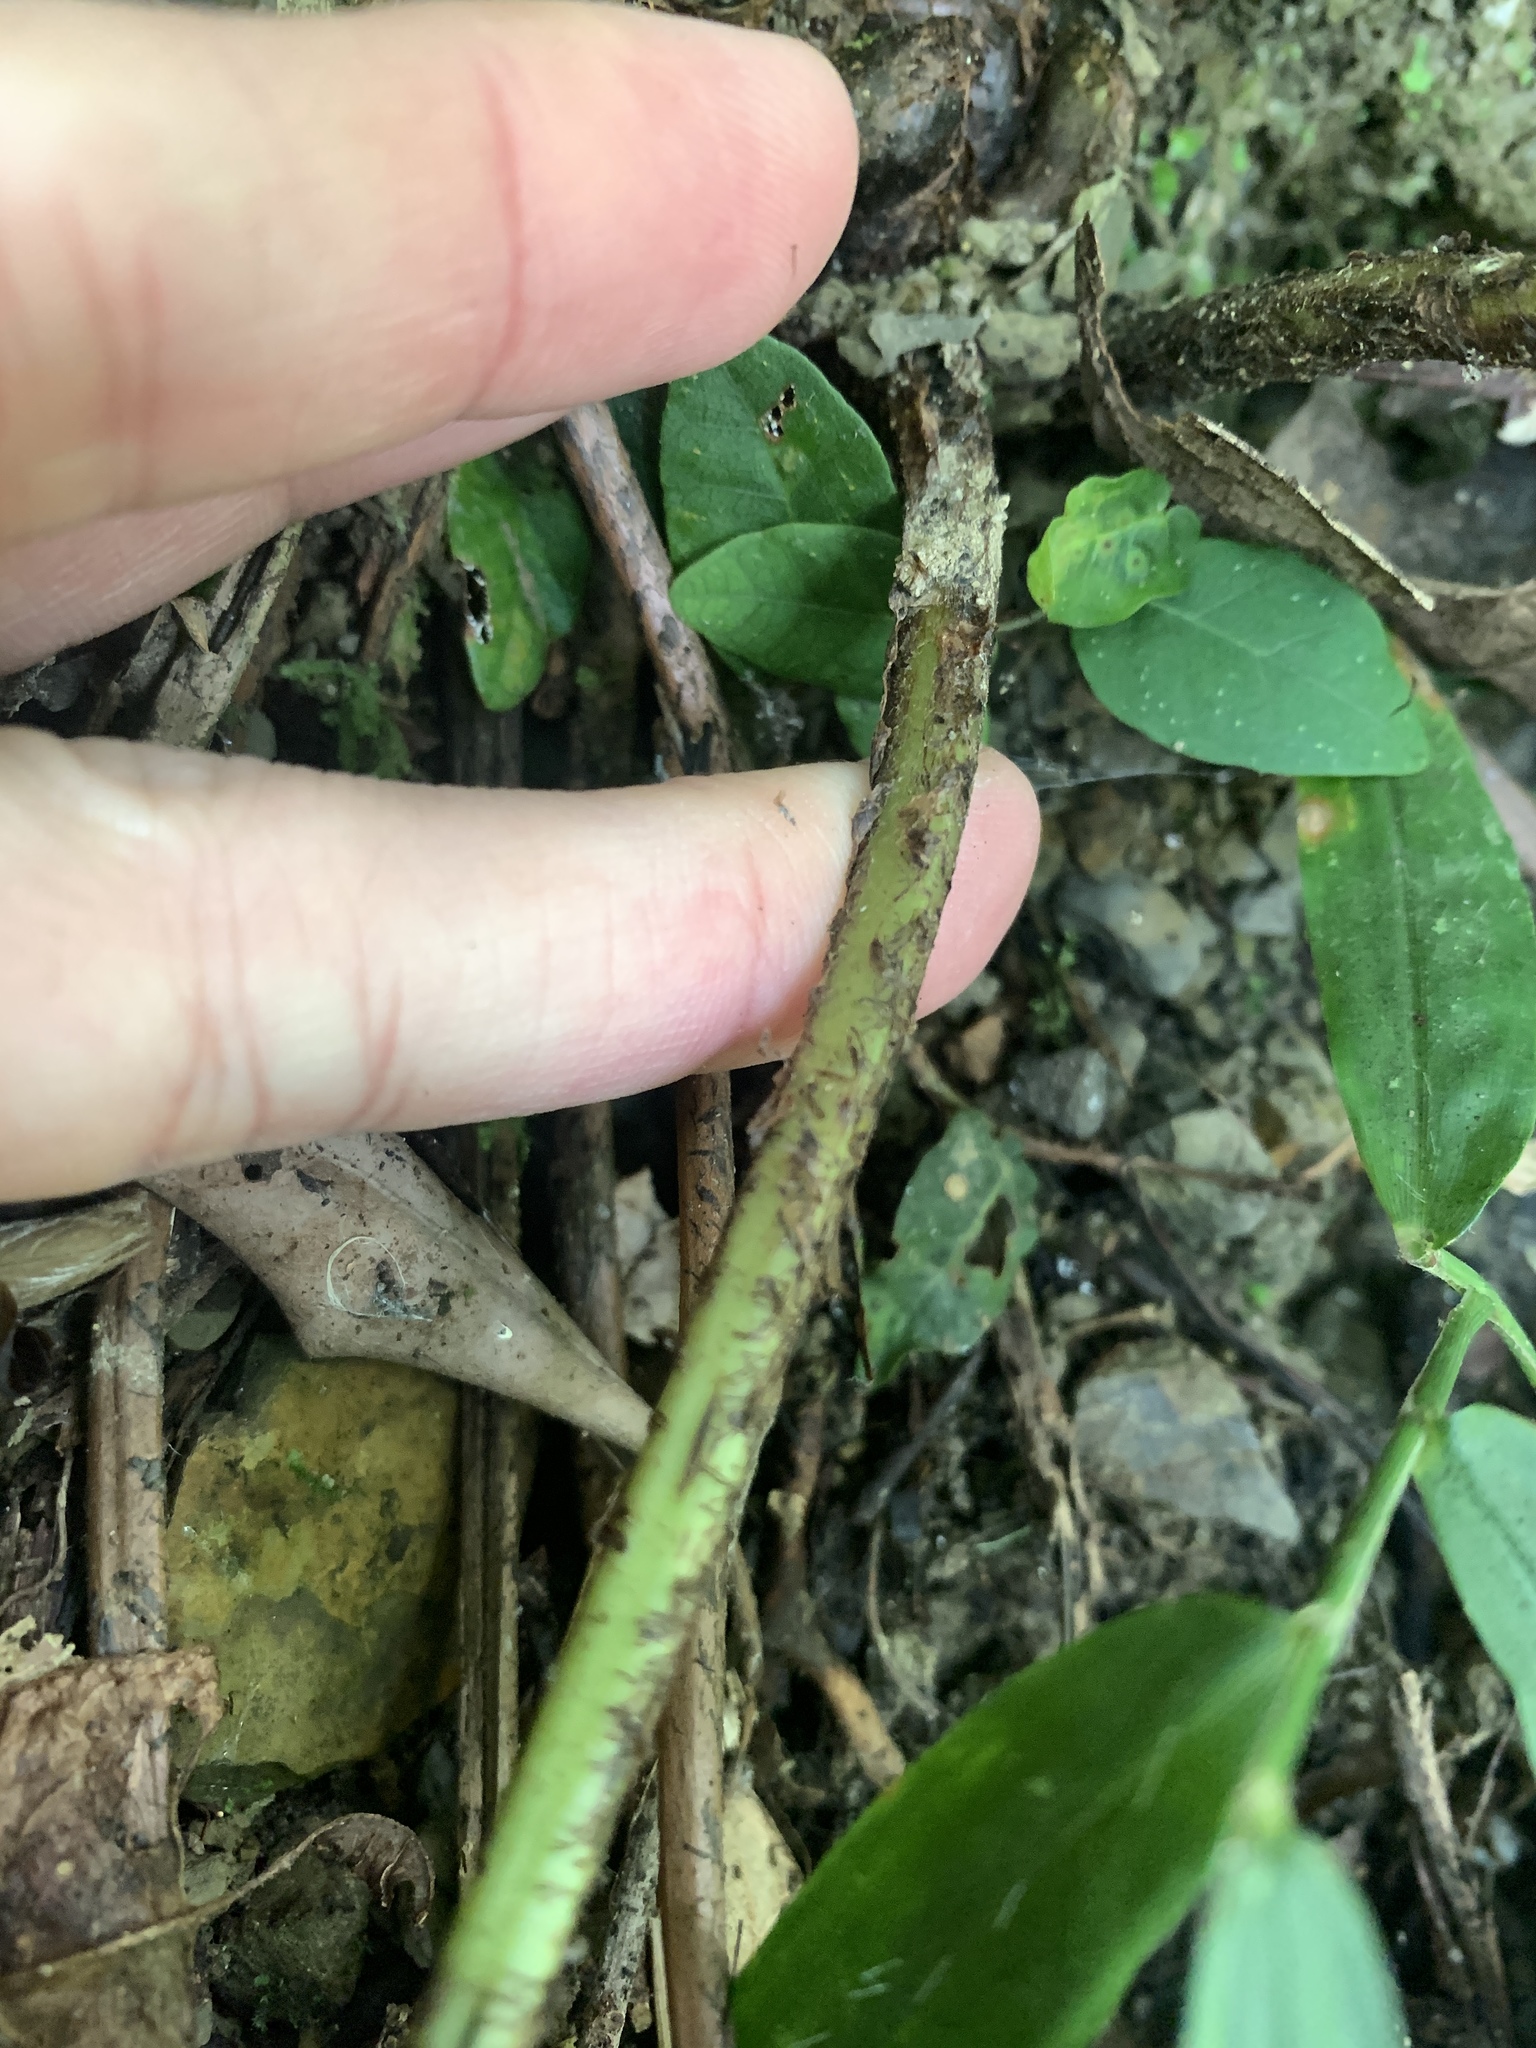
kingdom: Plantae
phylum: Tracheophyta
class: Polypodiopsida
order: Polypodiales
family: Dryopteridaceae
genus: Dryopteris
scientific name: Dryopteris atrata
